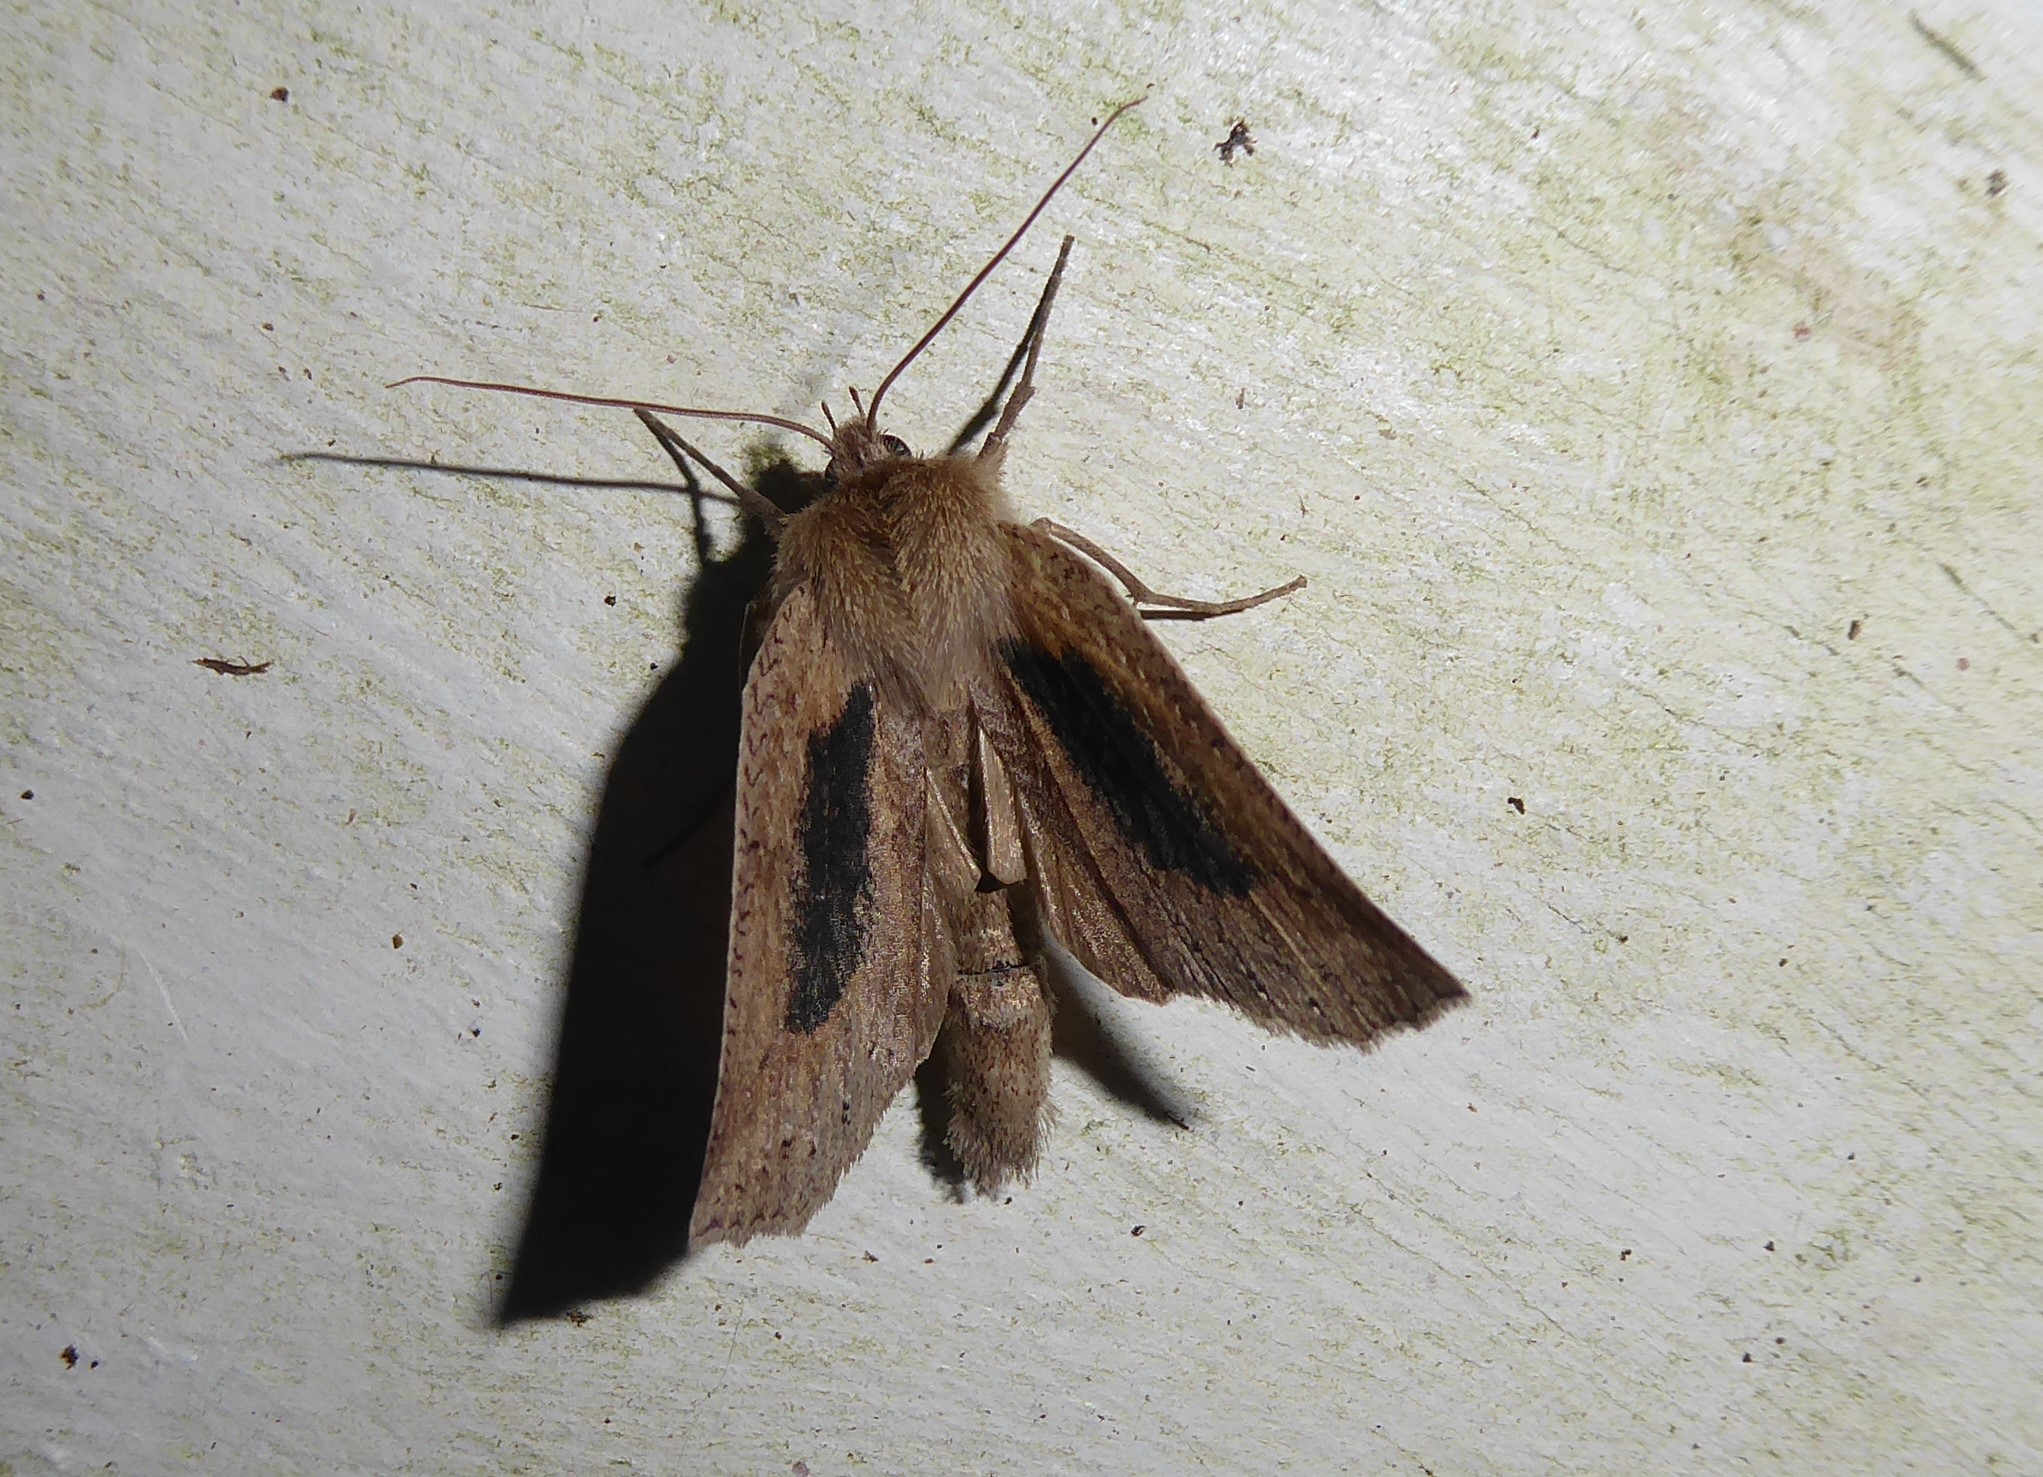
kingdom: Animalia
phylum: Arthropoda
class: Insecta
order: Lepidoptera
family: Geometridae
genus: Declana
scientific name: Declana leptomera
